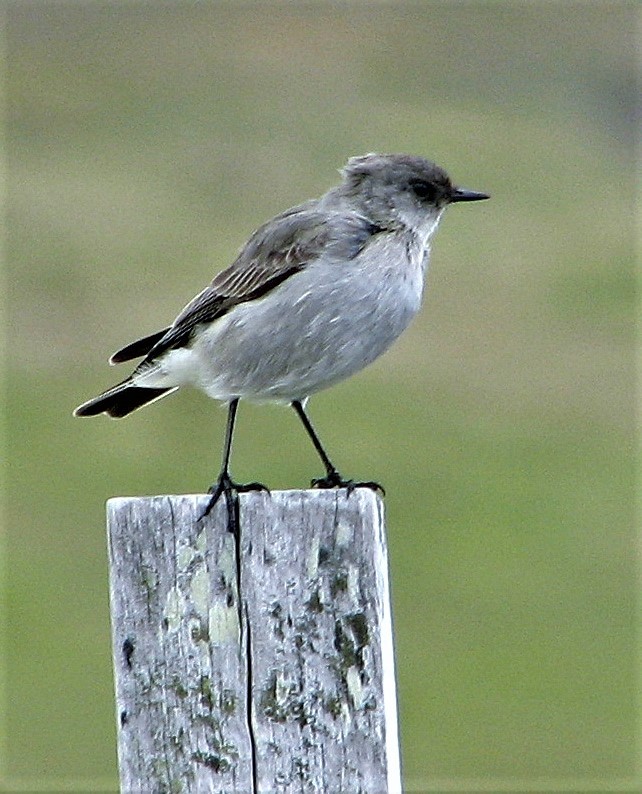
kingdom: Animalia
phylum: Chordata
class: Aves
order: Passeriformes
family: Tyrannidae
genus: Muscisaxicola
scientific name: Muscisaxicola maclovianus
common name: Dark-faced ground tyrant
